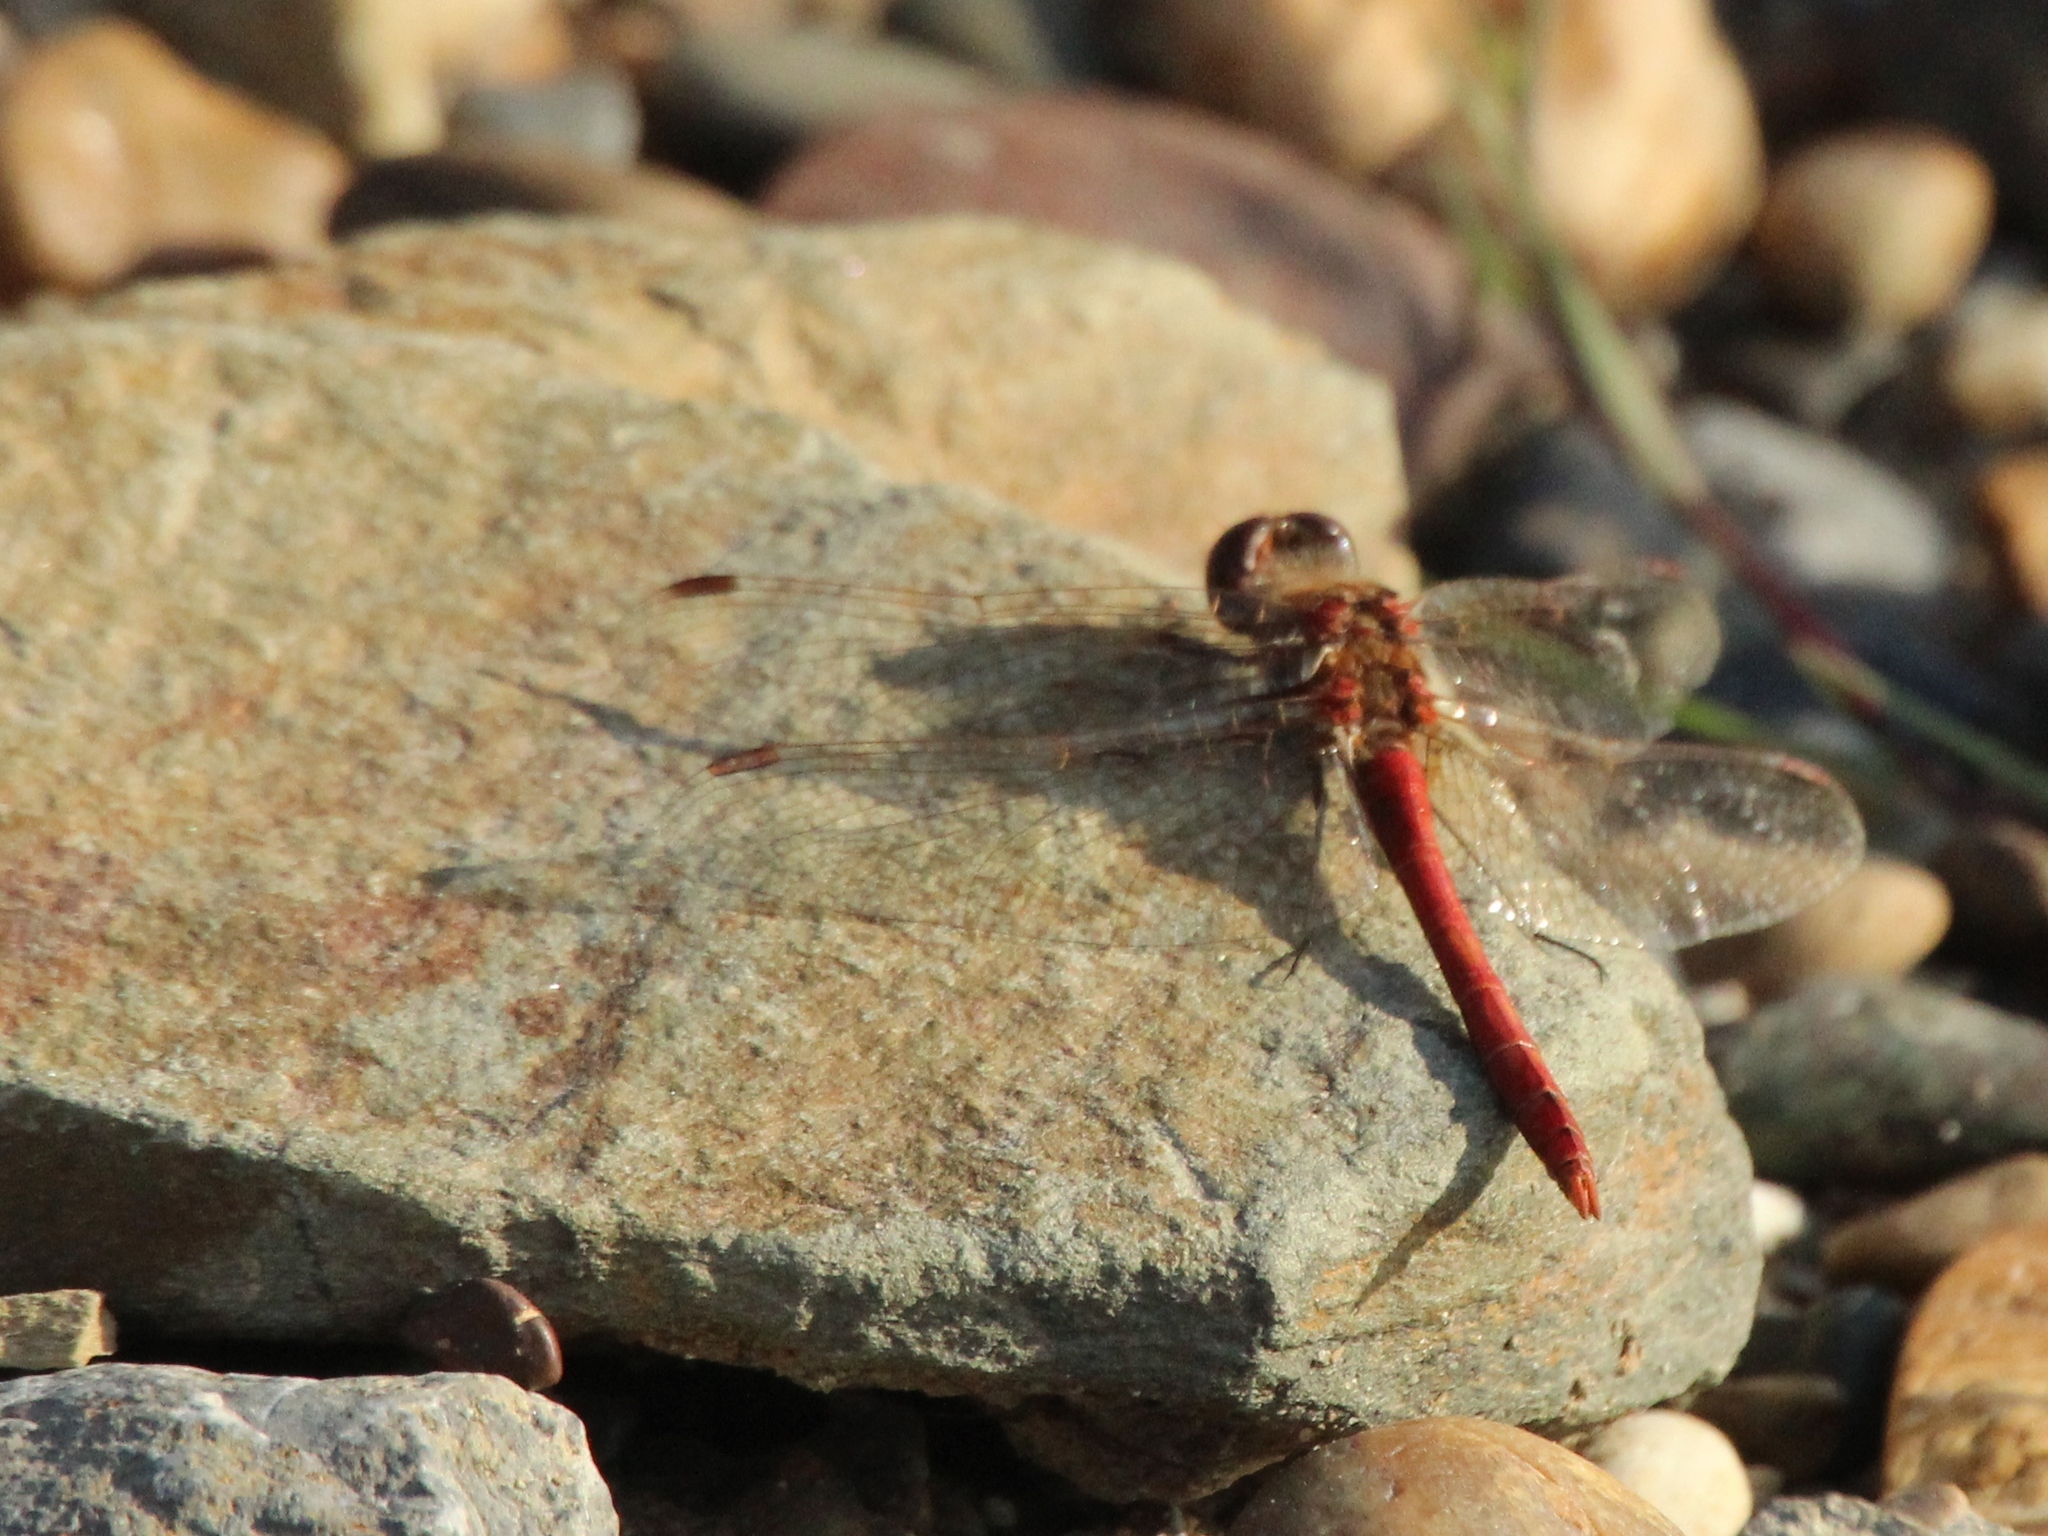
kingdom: Animalia
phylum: Arthropoda
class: Insecta
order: Odonata
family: Libellulidae
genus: Sympetrum
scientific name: Sympetrum vulgatum
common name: Vagrant darter
